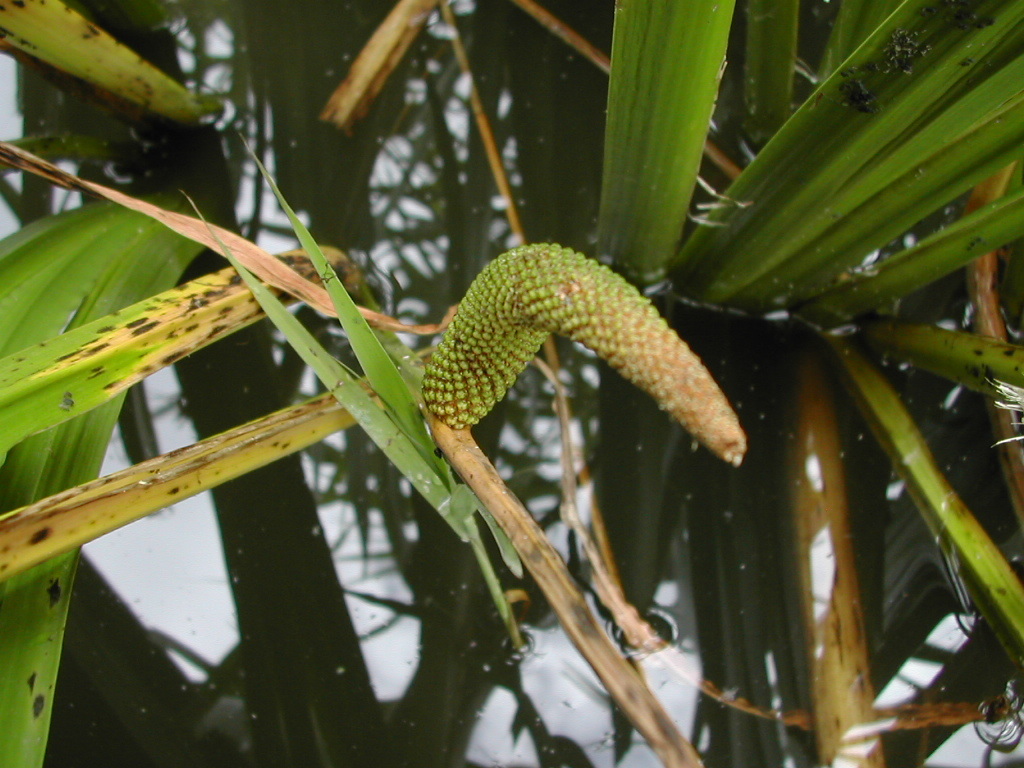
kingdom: Plantae
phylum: Tracheophyta
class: Liliopsida
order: Acorales
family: Acoraceae
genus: Acorus
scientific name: Acorus calamus
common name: Sweet-flag
